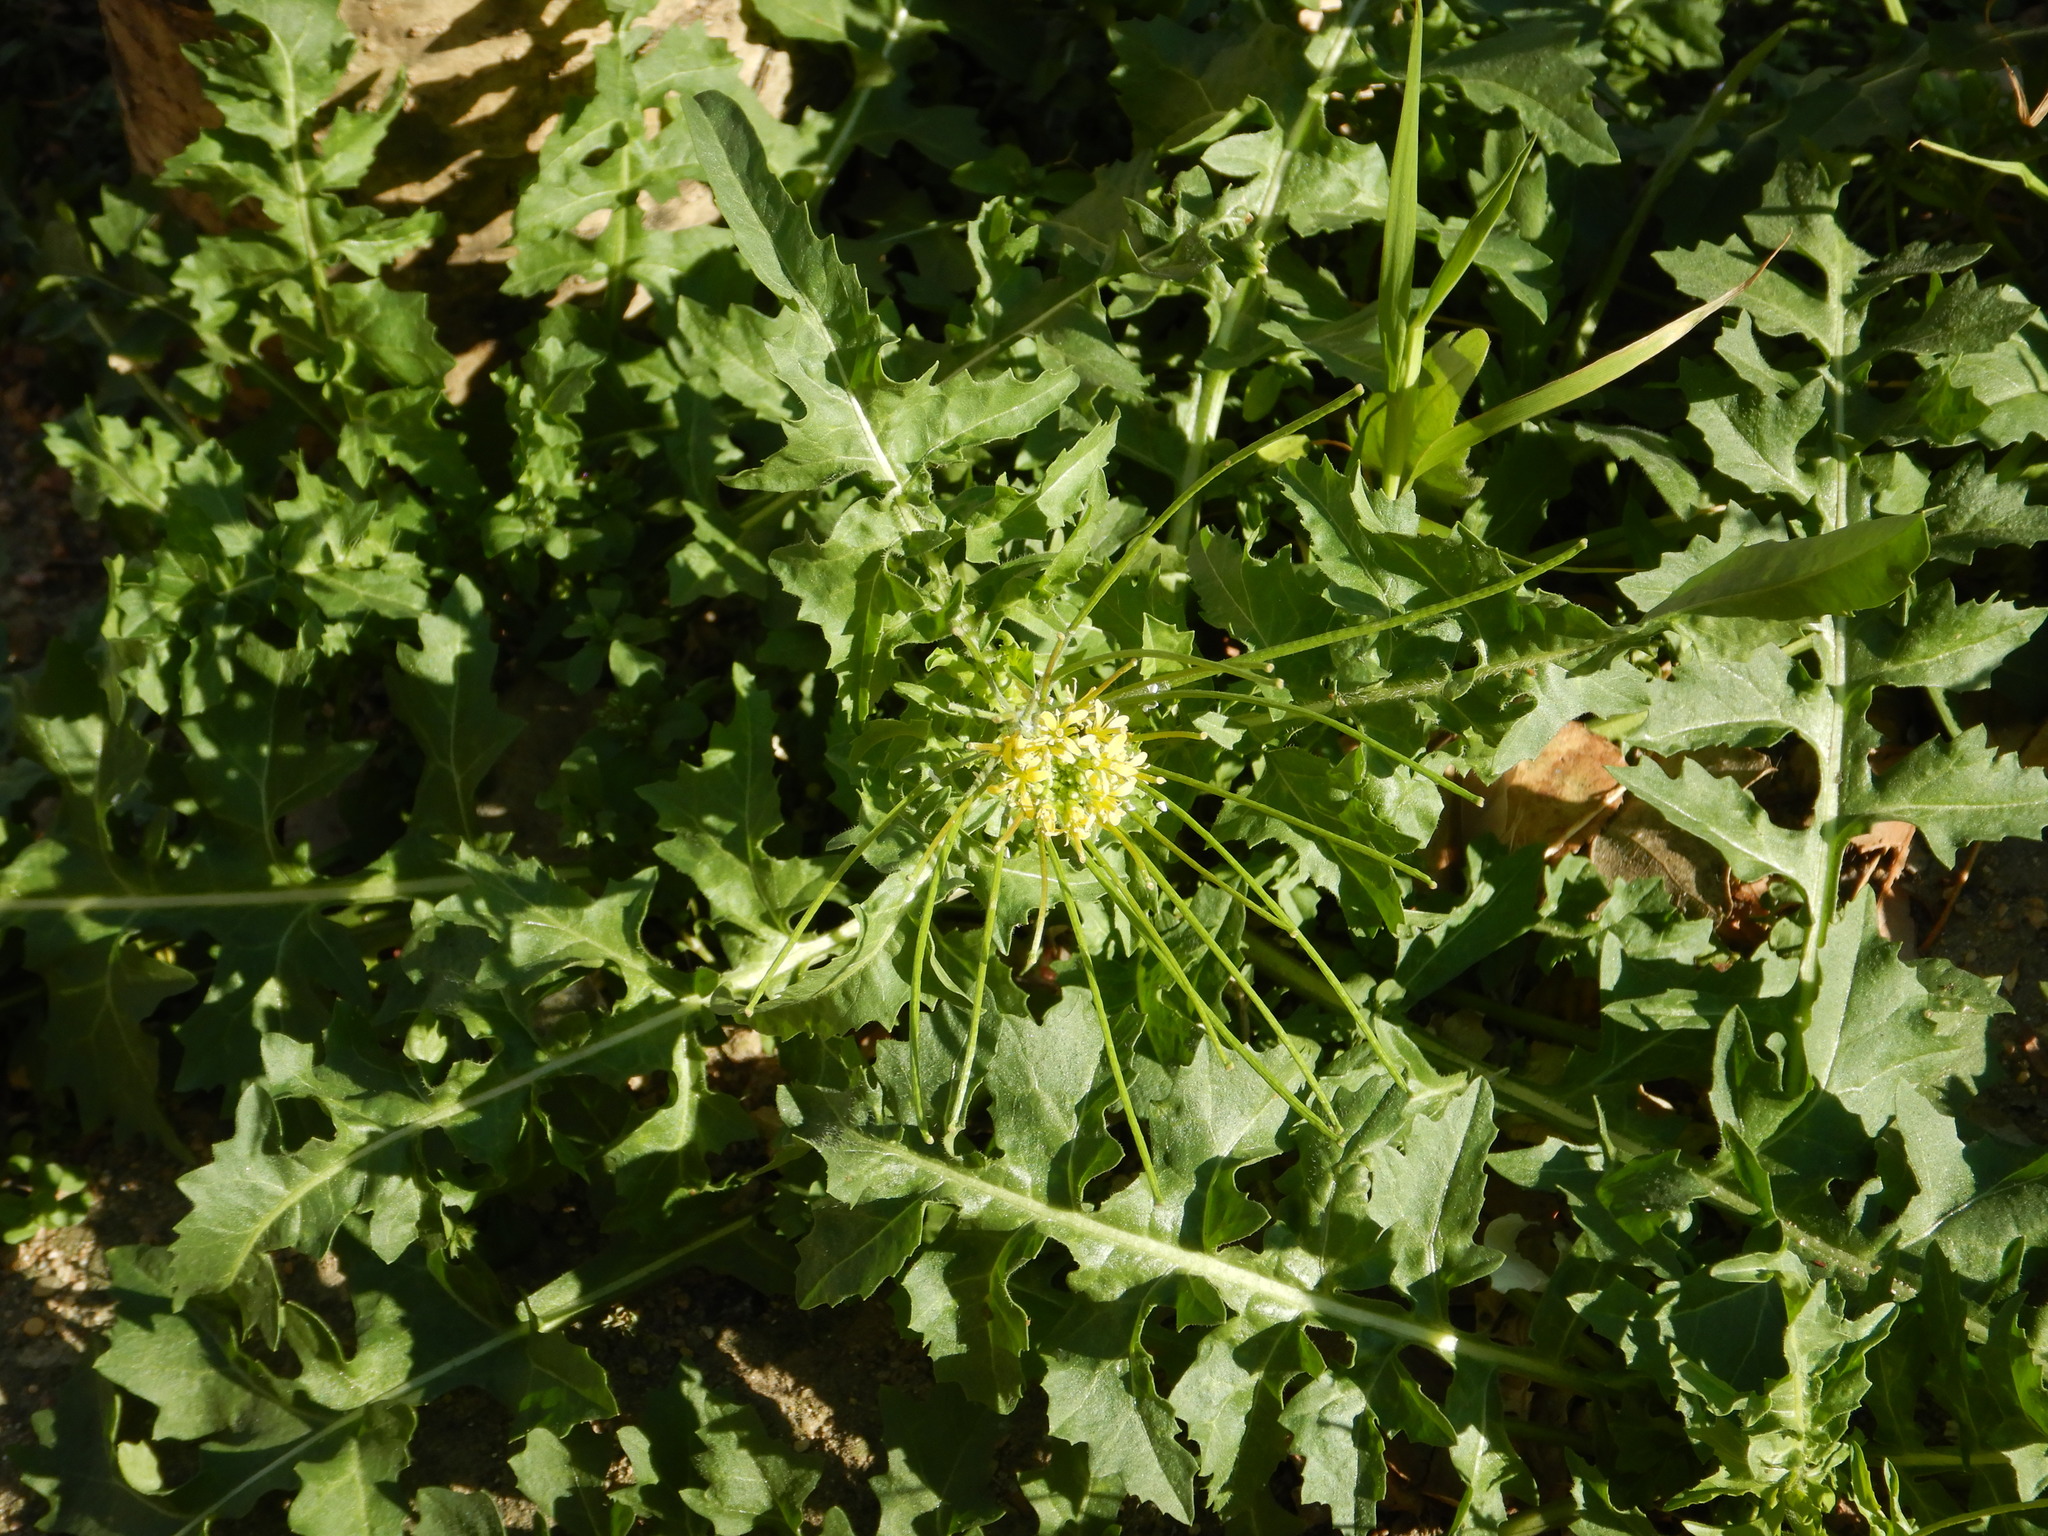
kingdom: Plantae
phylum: Tracheophyta
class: Magnoliopsida
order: Brassicales
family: Brassicaceae
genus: Sisymbrium
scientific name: Sisymbrium irio
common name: London rocket
